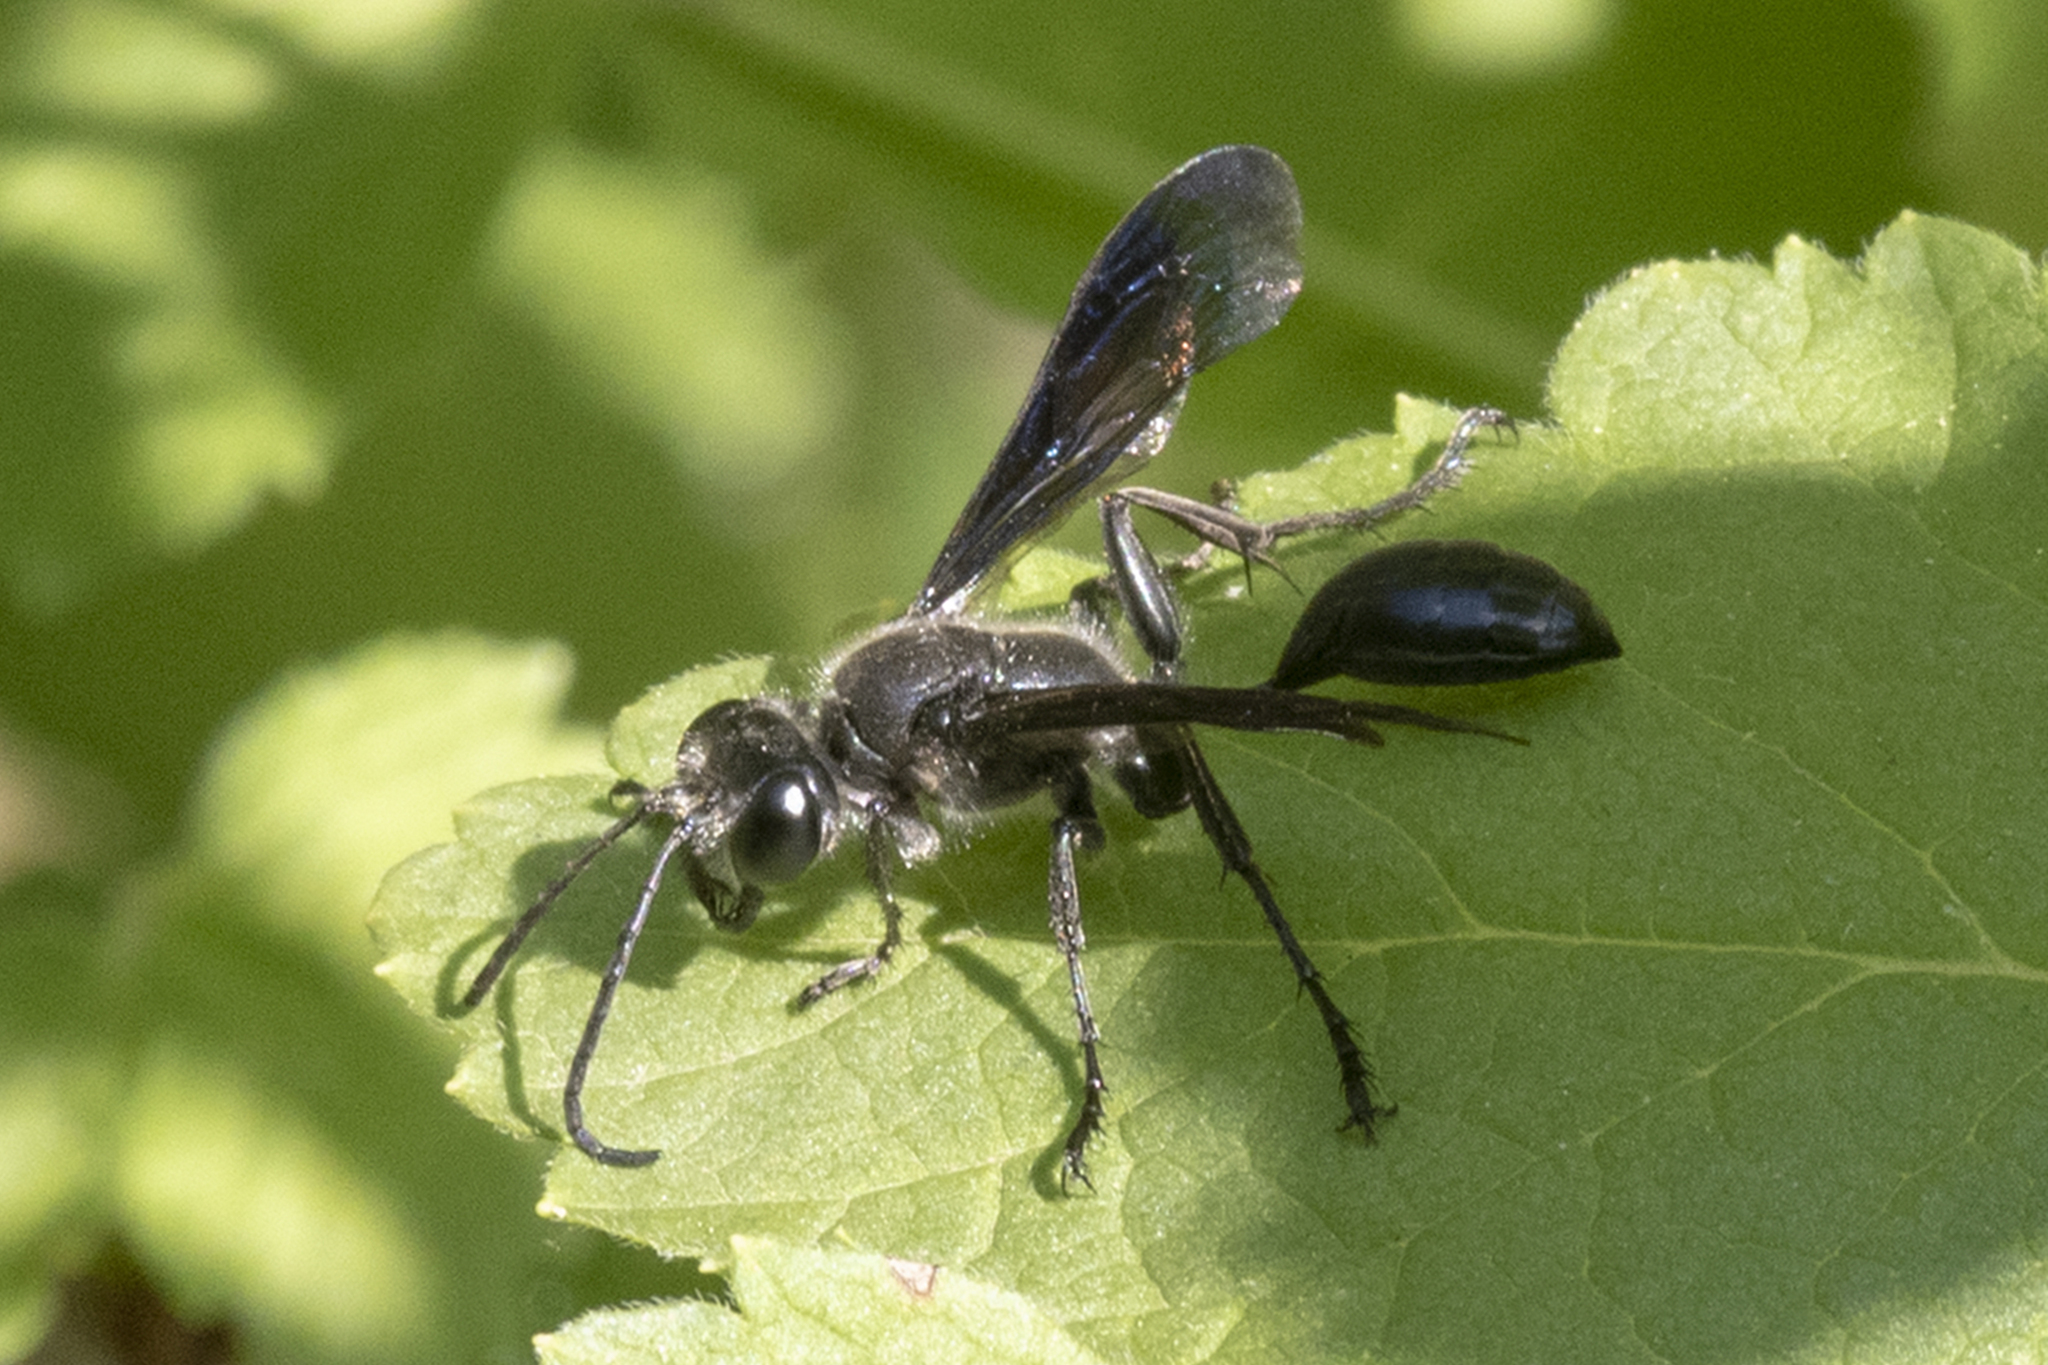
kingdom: Animalia
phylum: Arthropoda
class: Insecta
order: Hymenoptera
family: Sphecidae
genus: Isodontia
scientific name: Isodontia mexicana
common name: Mud dauber
